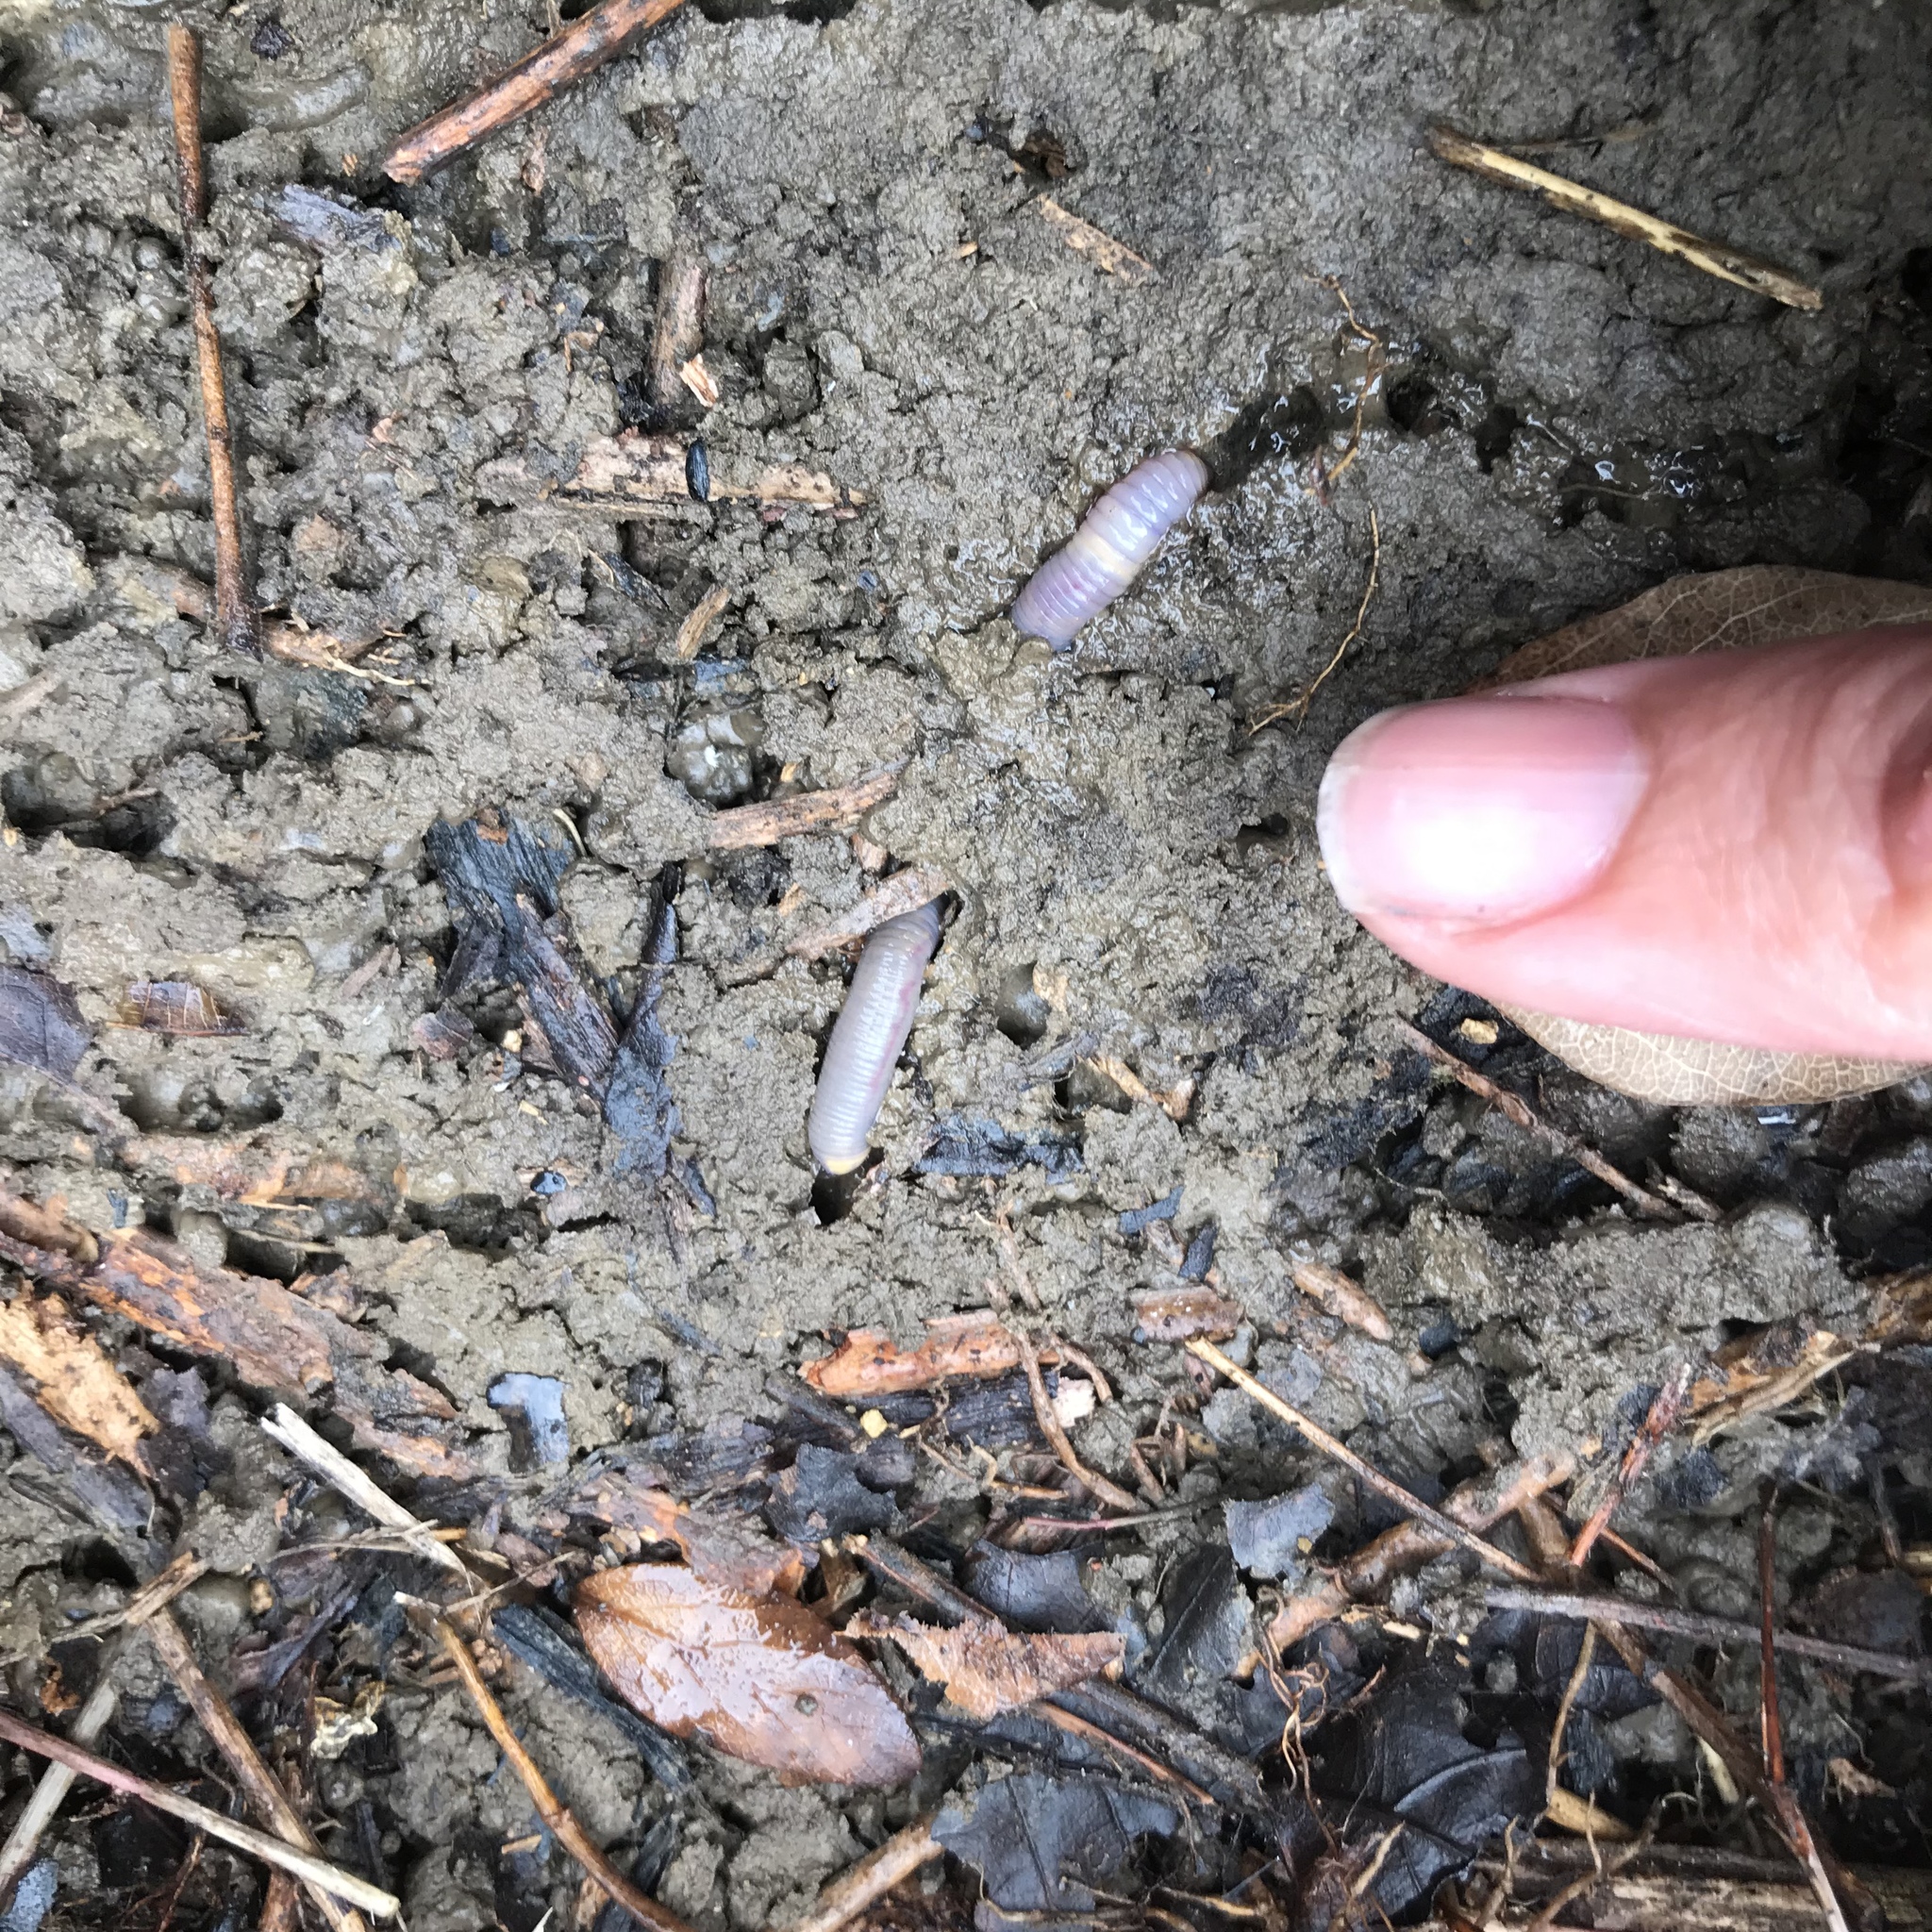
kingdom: Animalia
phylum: Annelida
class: Clitellata
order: Crassiclitellata
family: Lumbricidae
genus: Lumbricus
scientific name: Lumbricus terrestris
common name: Common earthworm
